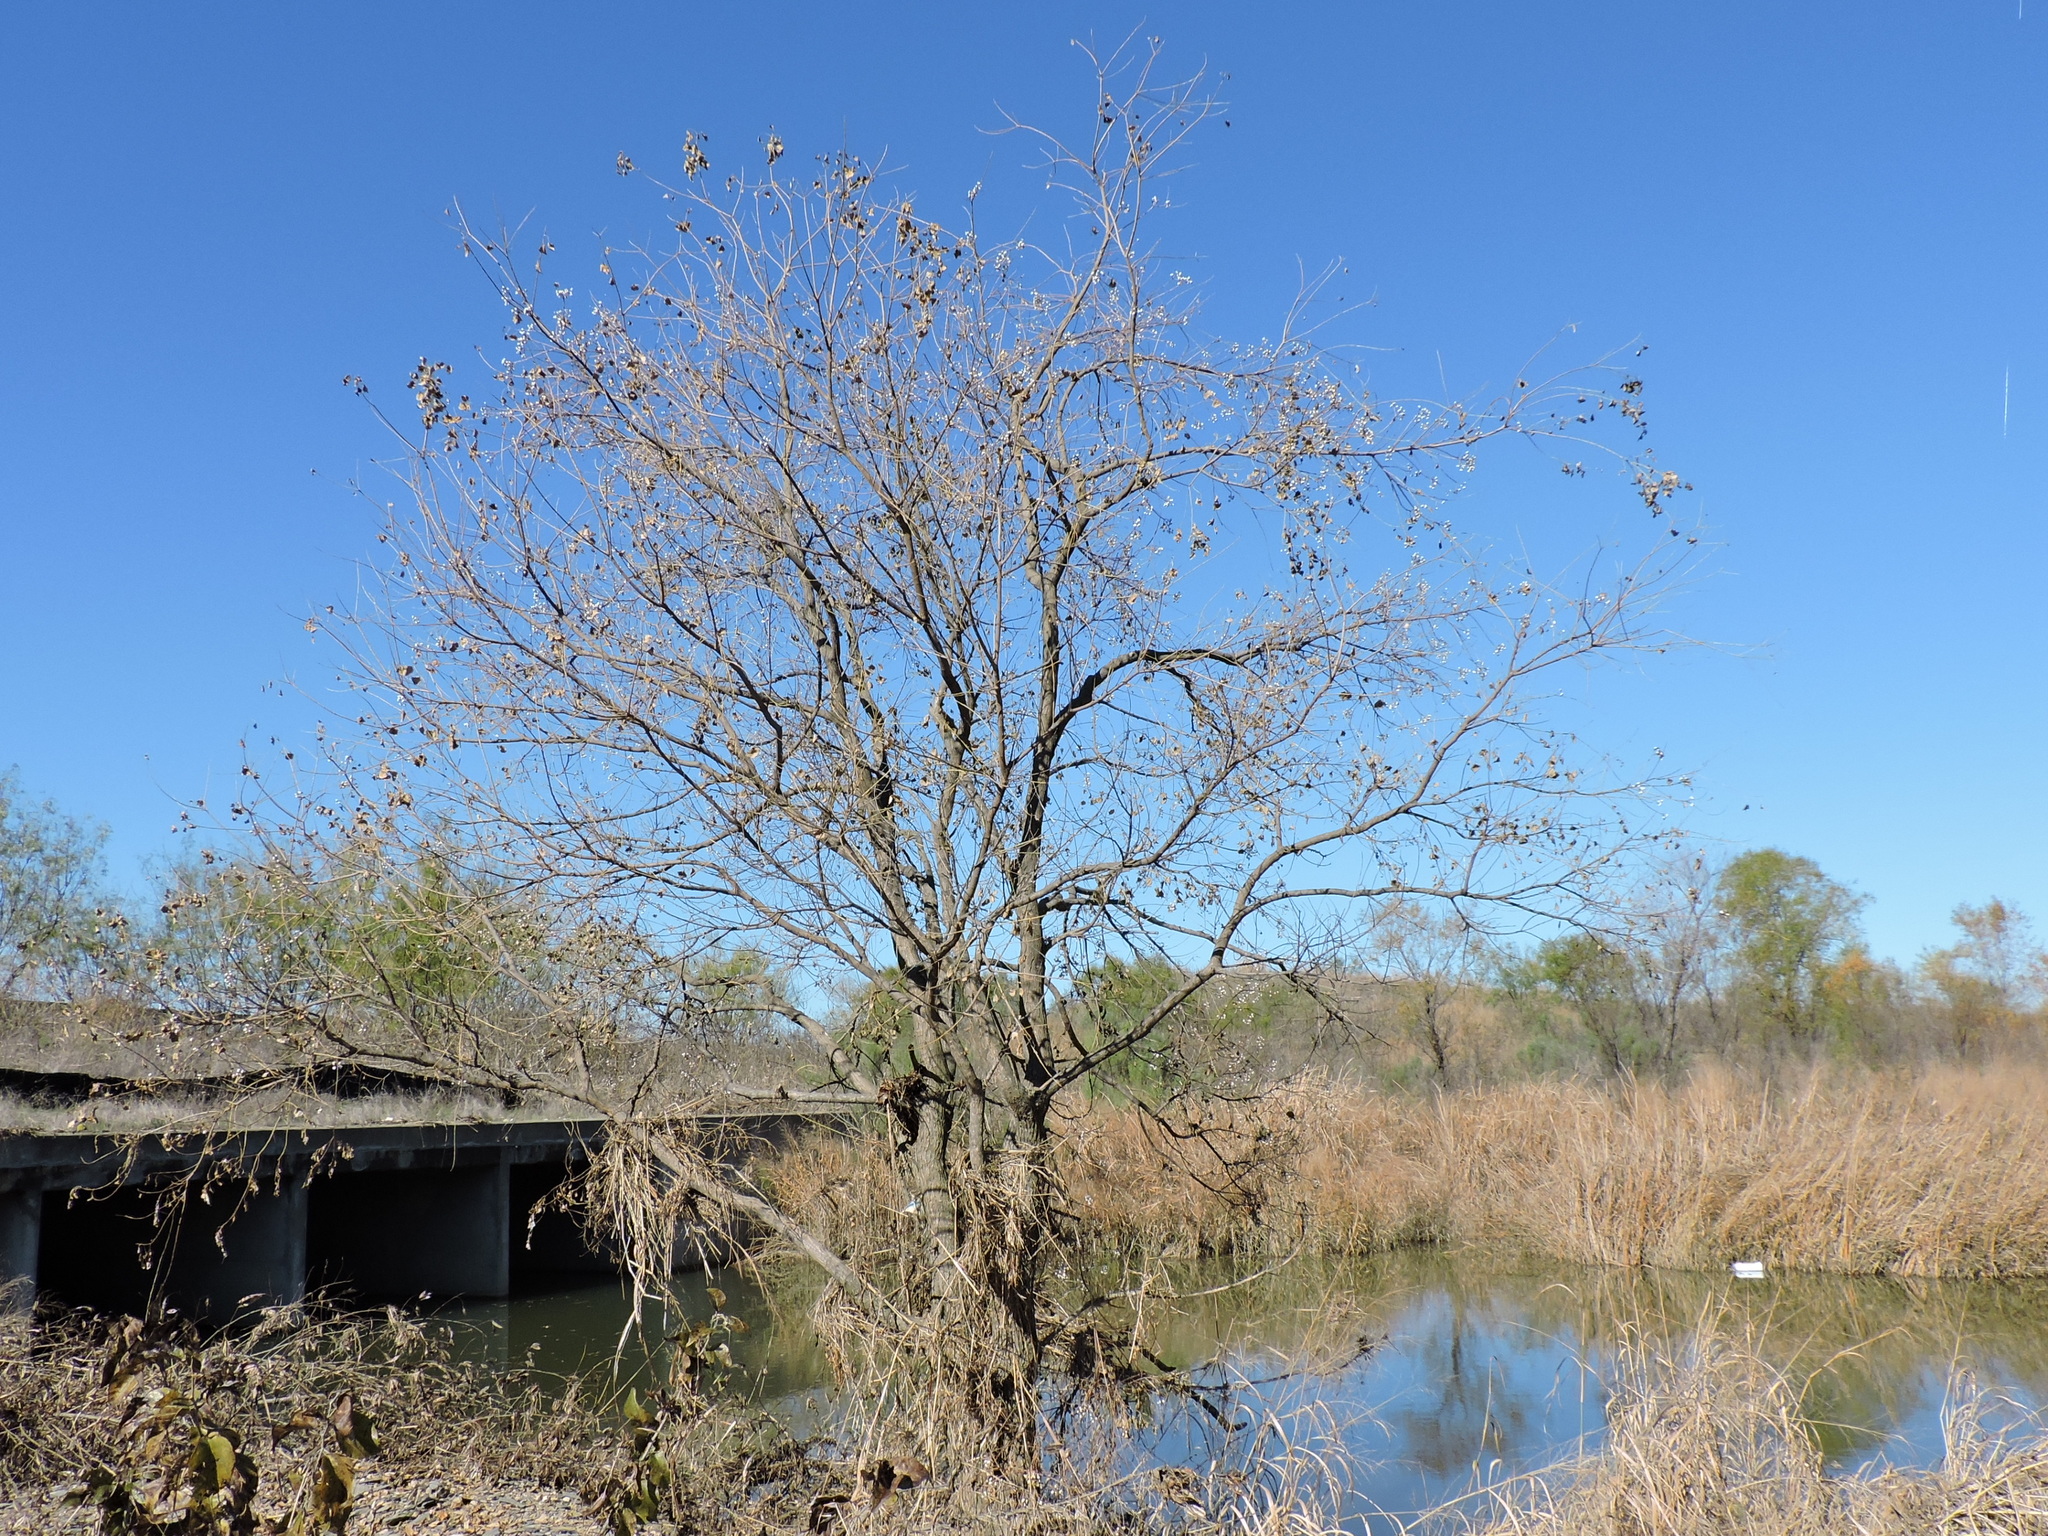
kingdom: Plantae
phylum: Tracheophyta
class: Magnoliopsida
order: Malpighiales
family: Euphorbiaceae
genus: Triadica
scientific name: Triadica sebifera
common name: Chinese tallow
